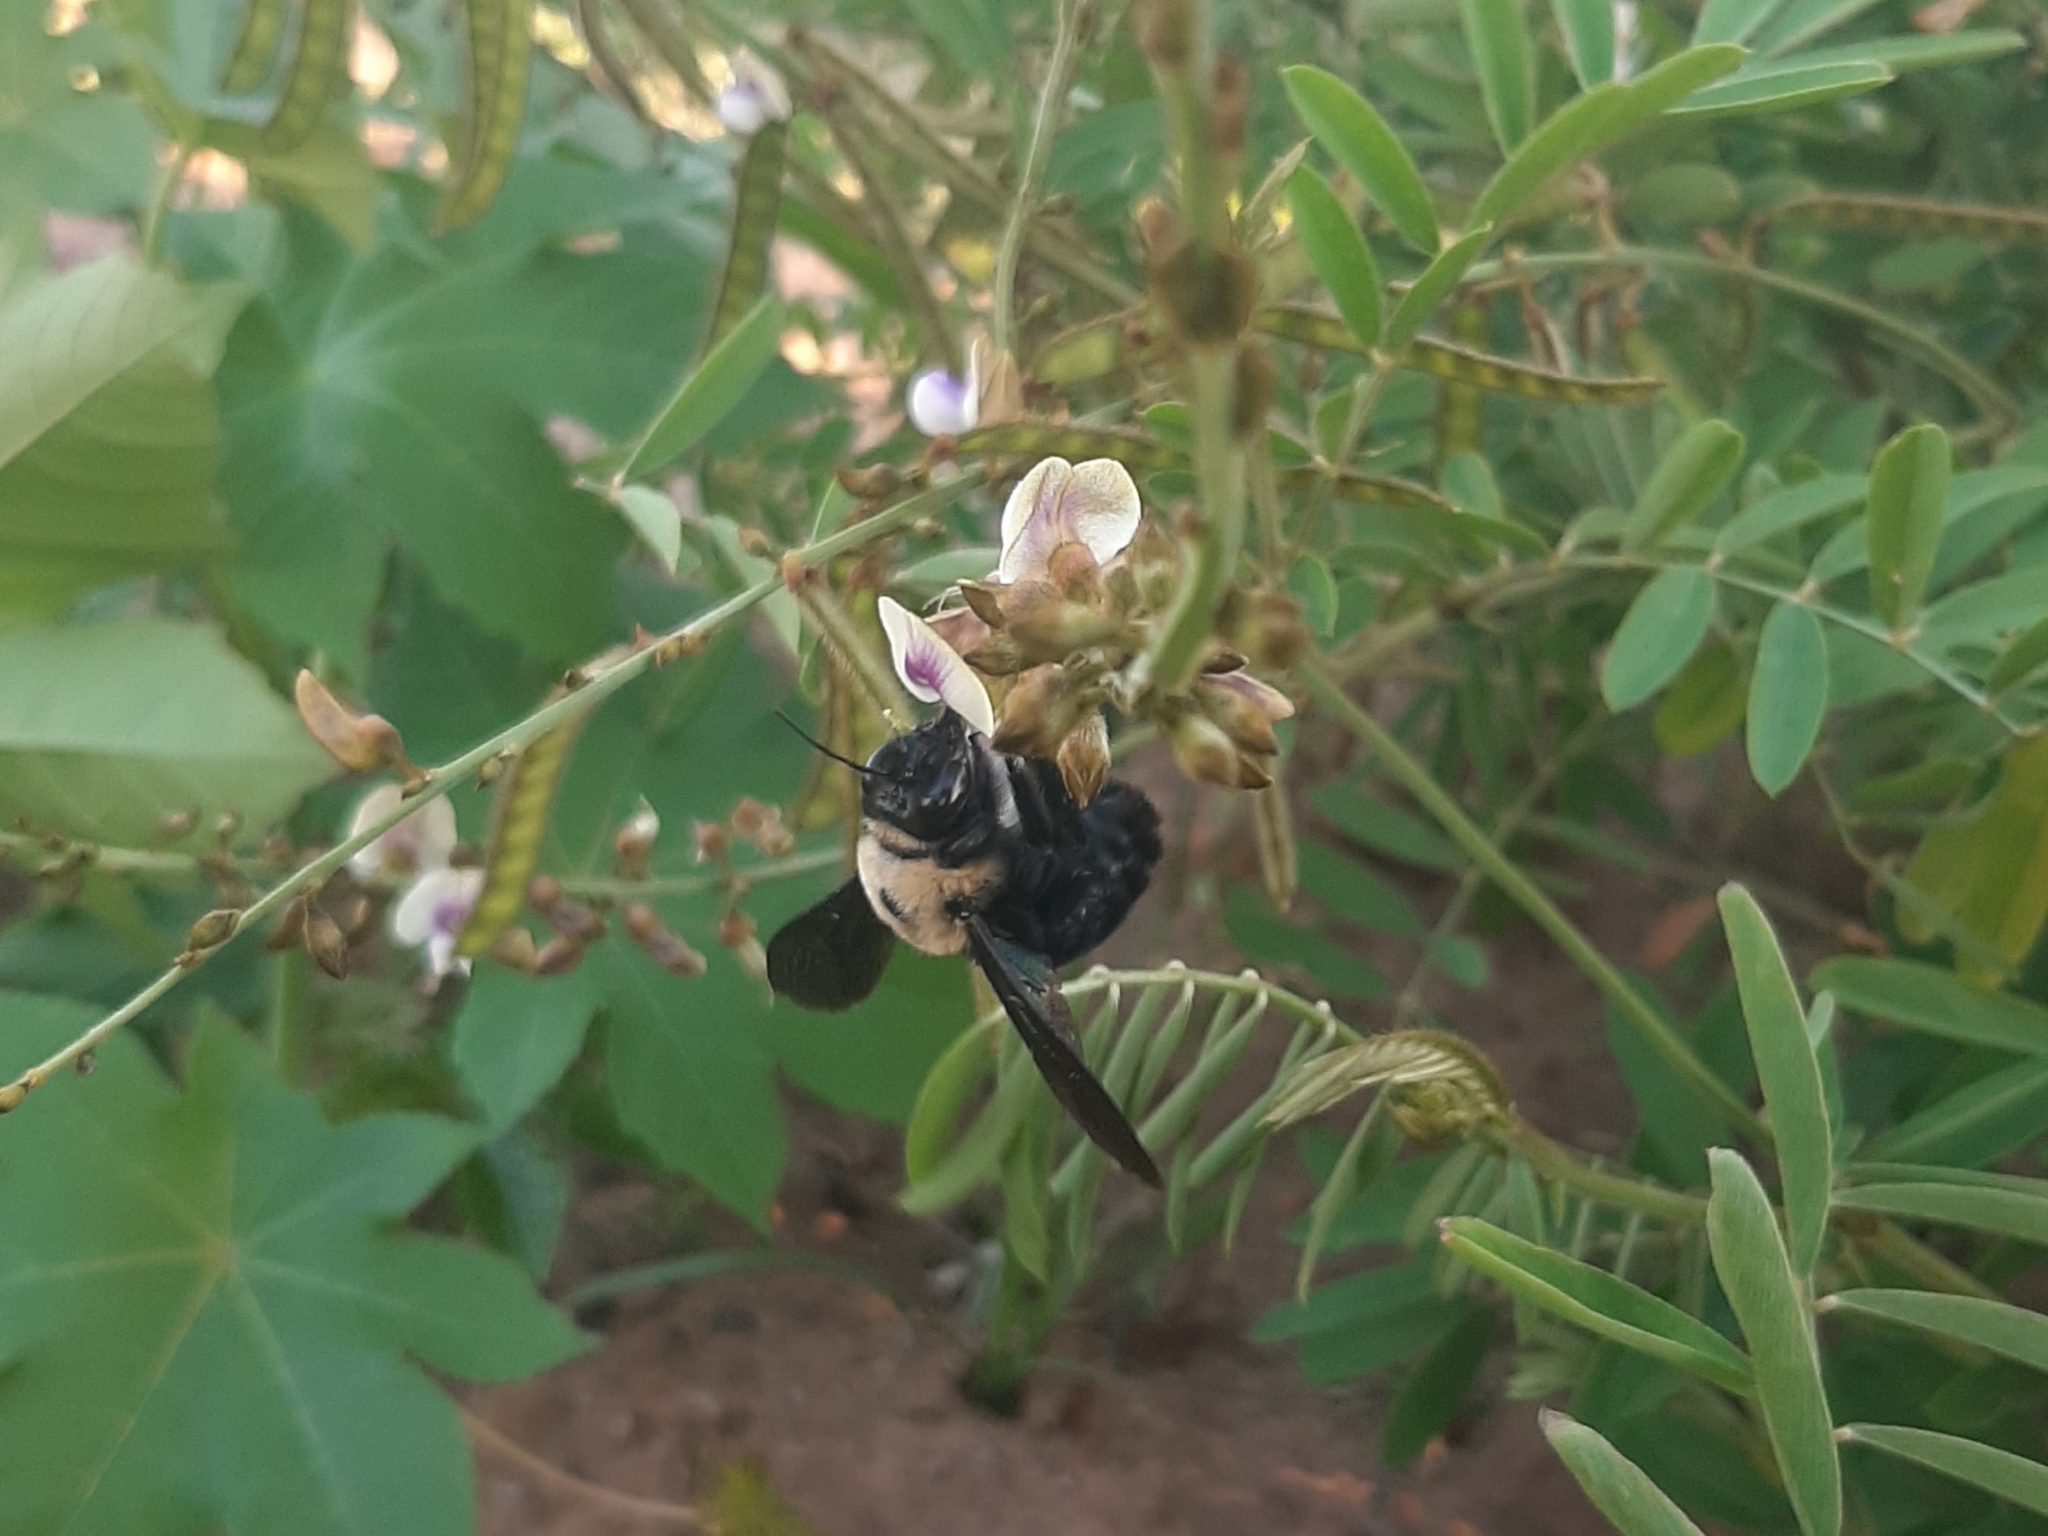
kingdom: Animalia
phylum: Arthropoda
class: Insecta
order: Hymenoptera
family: Apidae
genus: Xylocopa
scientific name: Xylocopa grisescens
